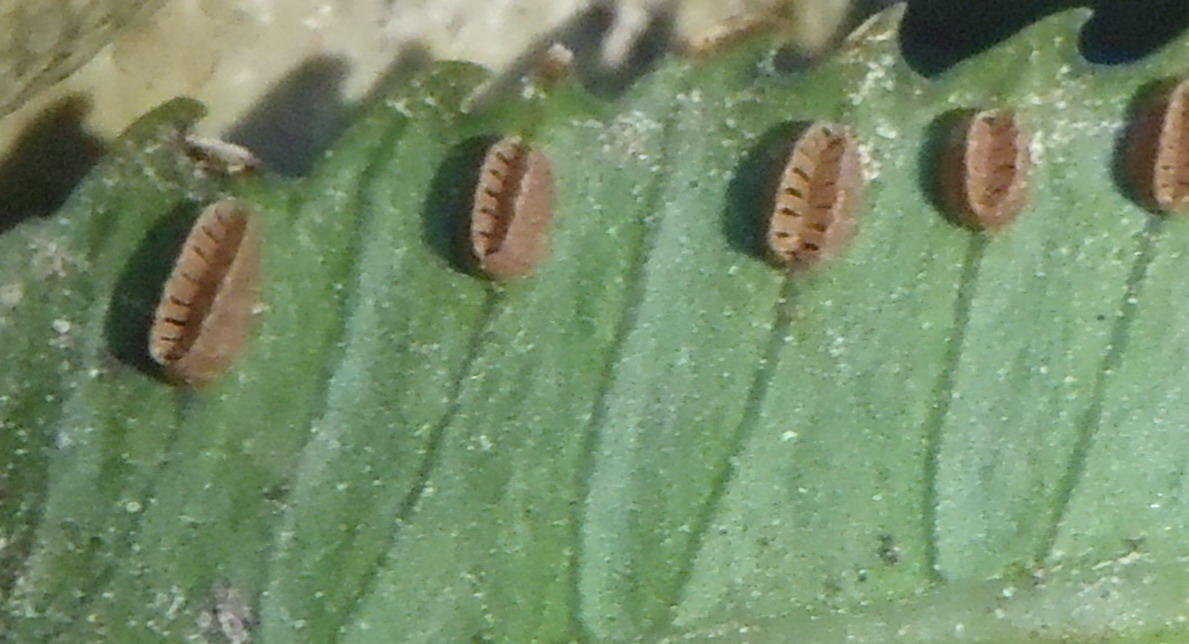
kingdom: Plantae
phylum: Tracheophyta
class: Polypodiopsida
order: Marattiales
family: Marattiaceae
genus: Ptisana
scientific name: Ptisana salicifolia
